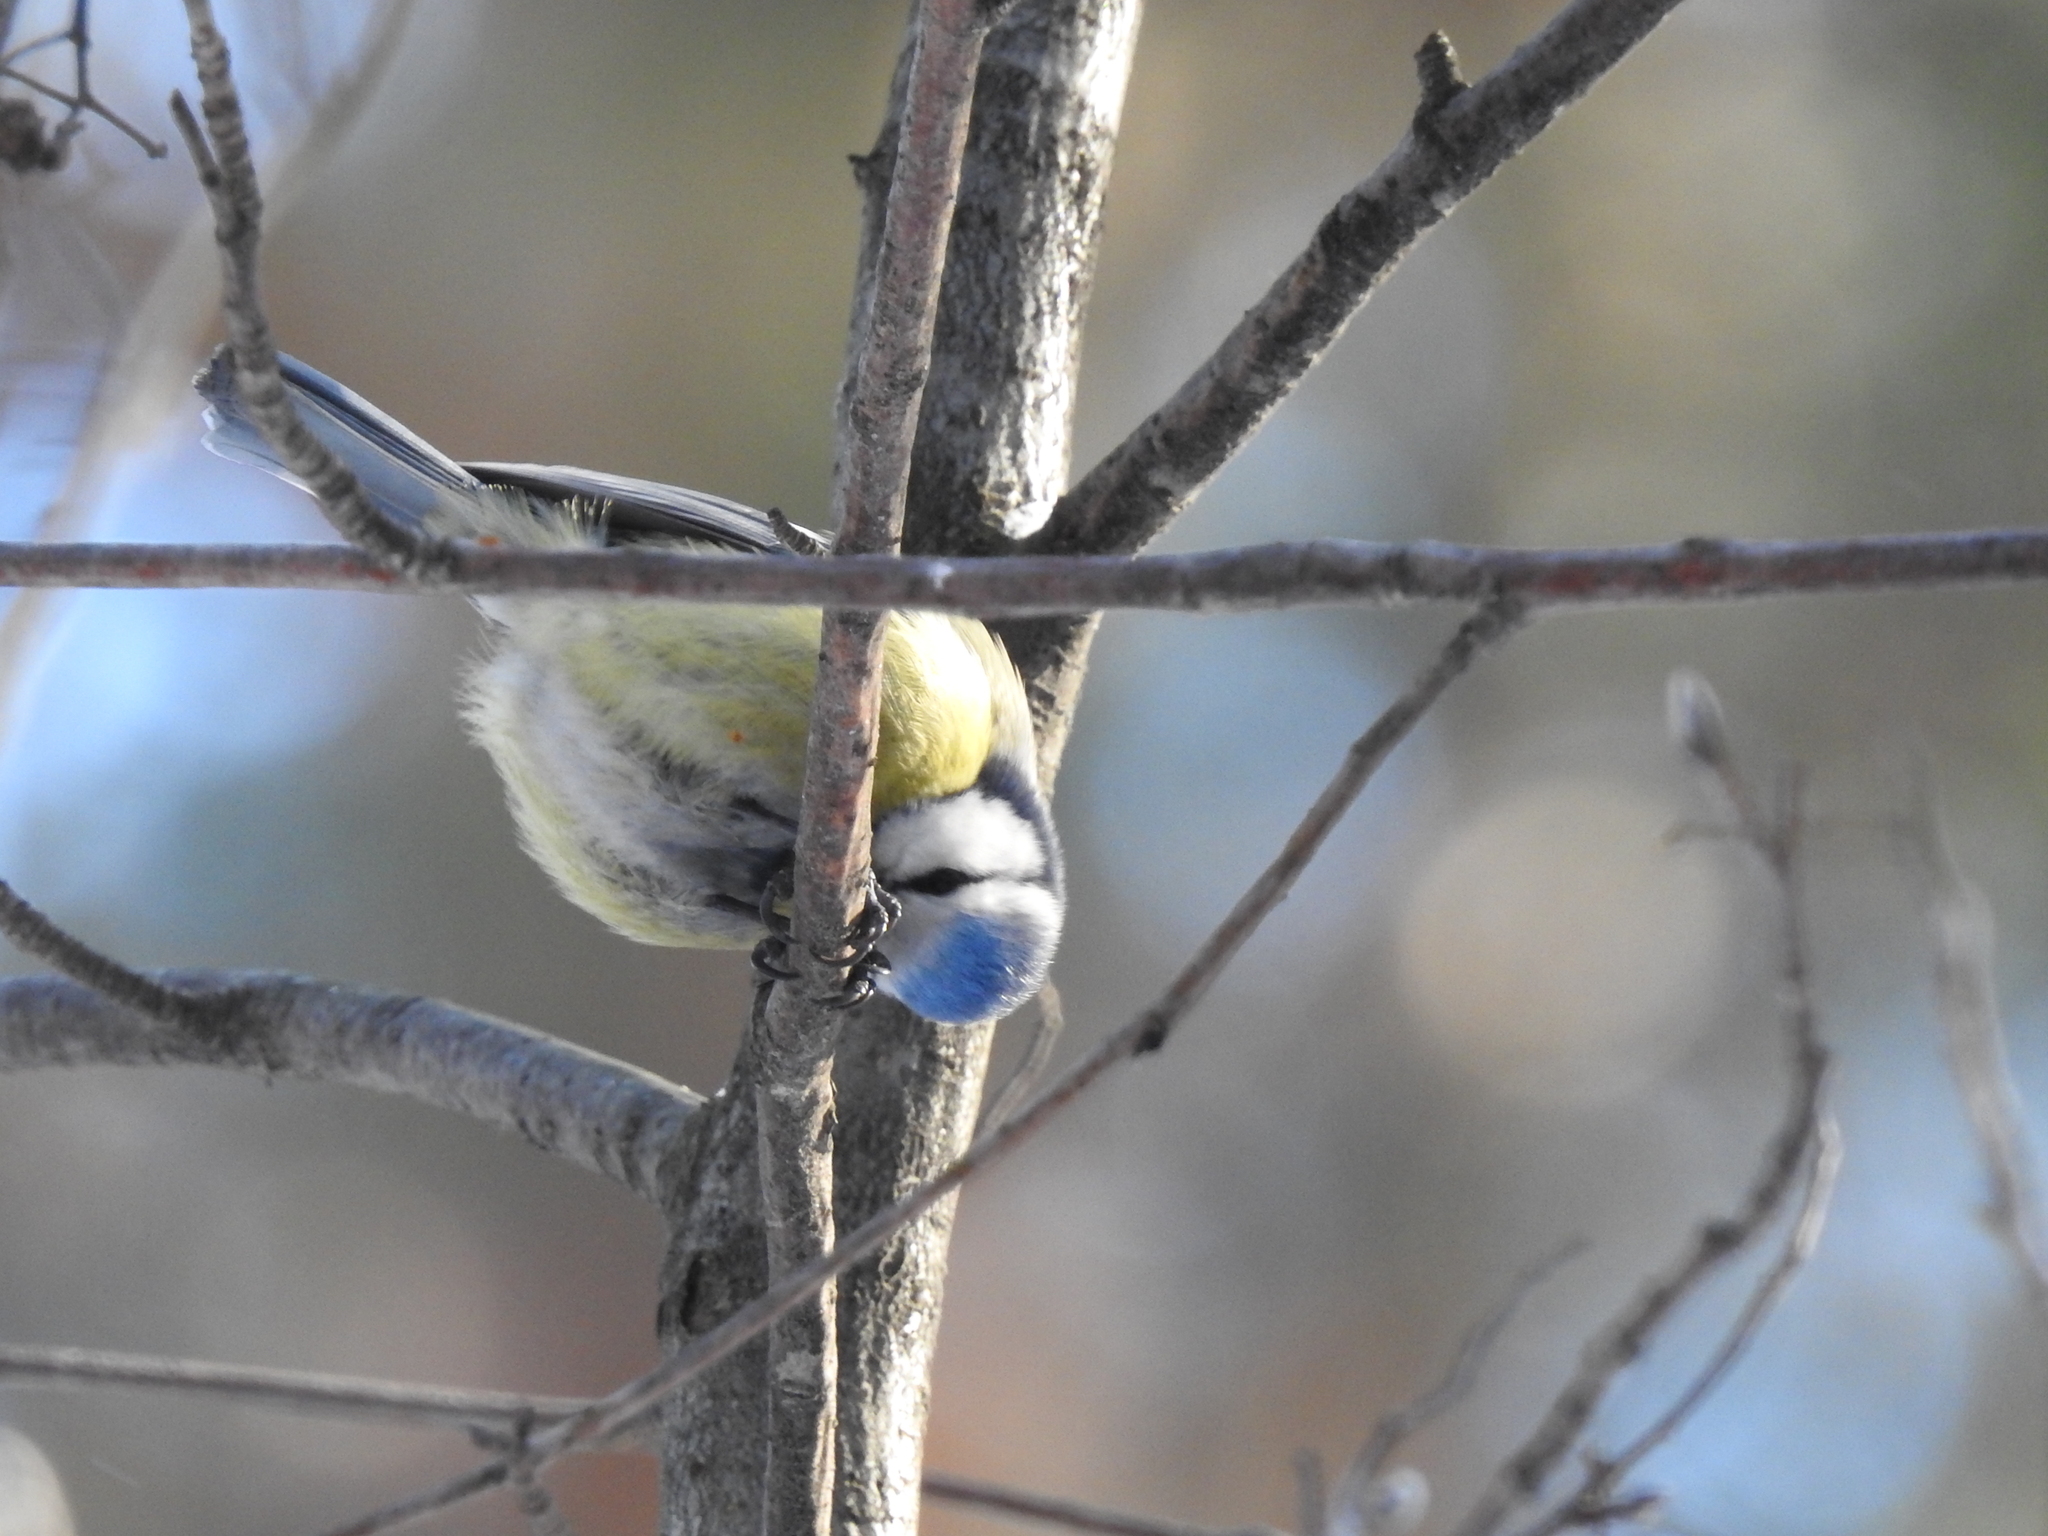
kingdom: Animalia
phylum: Chordata
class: Aves
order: Passeriformes
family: Paridae
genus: Cyanistes
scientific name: Cyanistes caeruleus
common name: Eurasian blue tit
